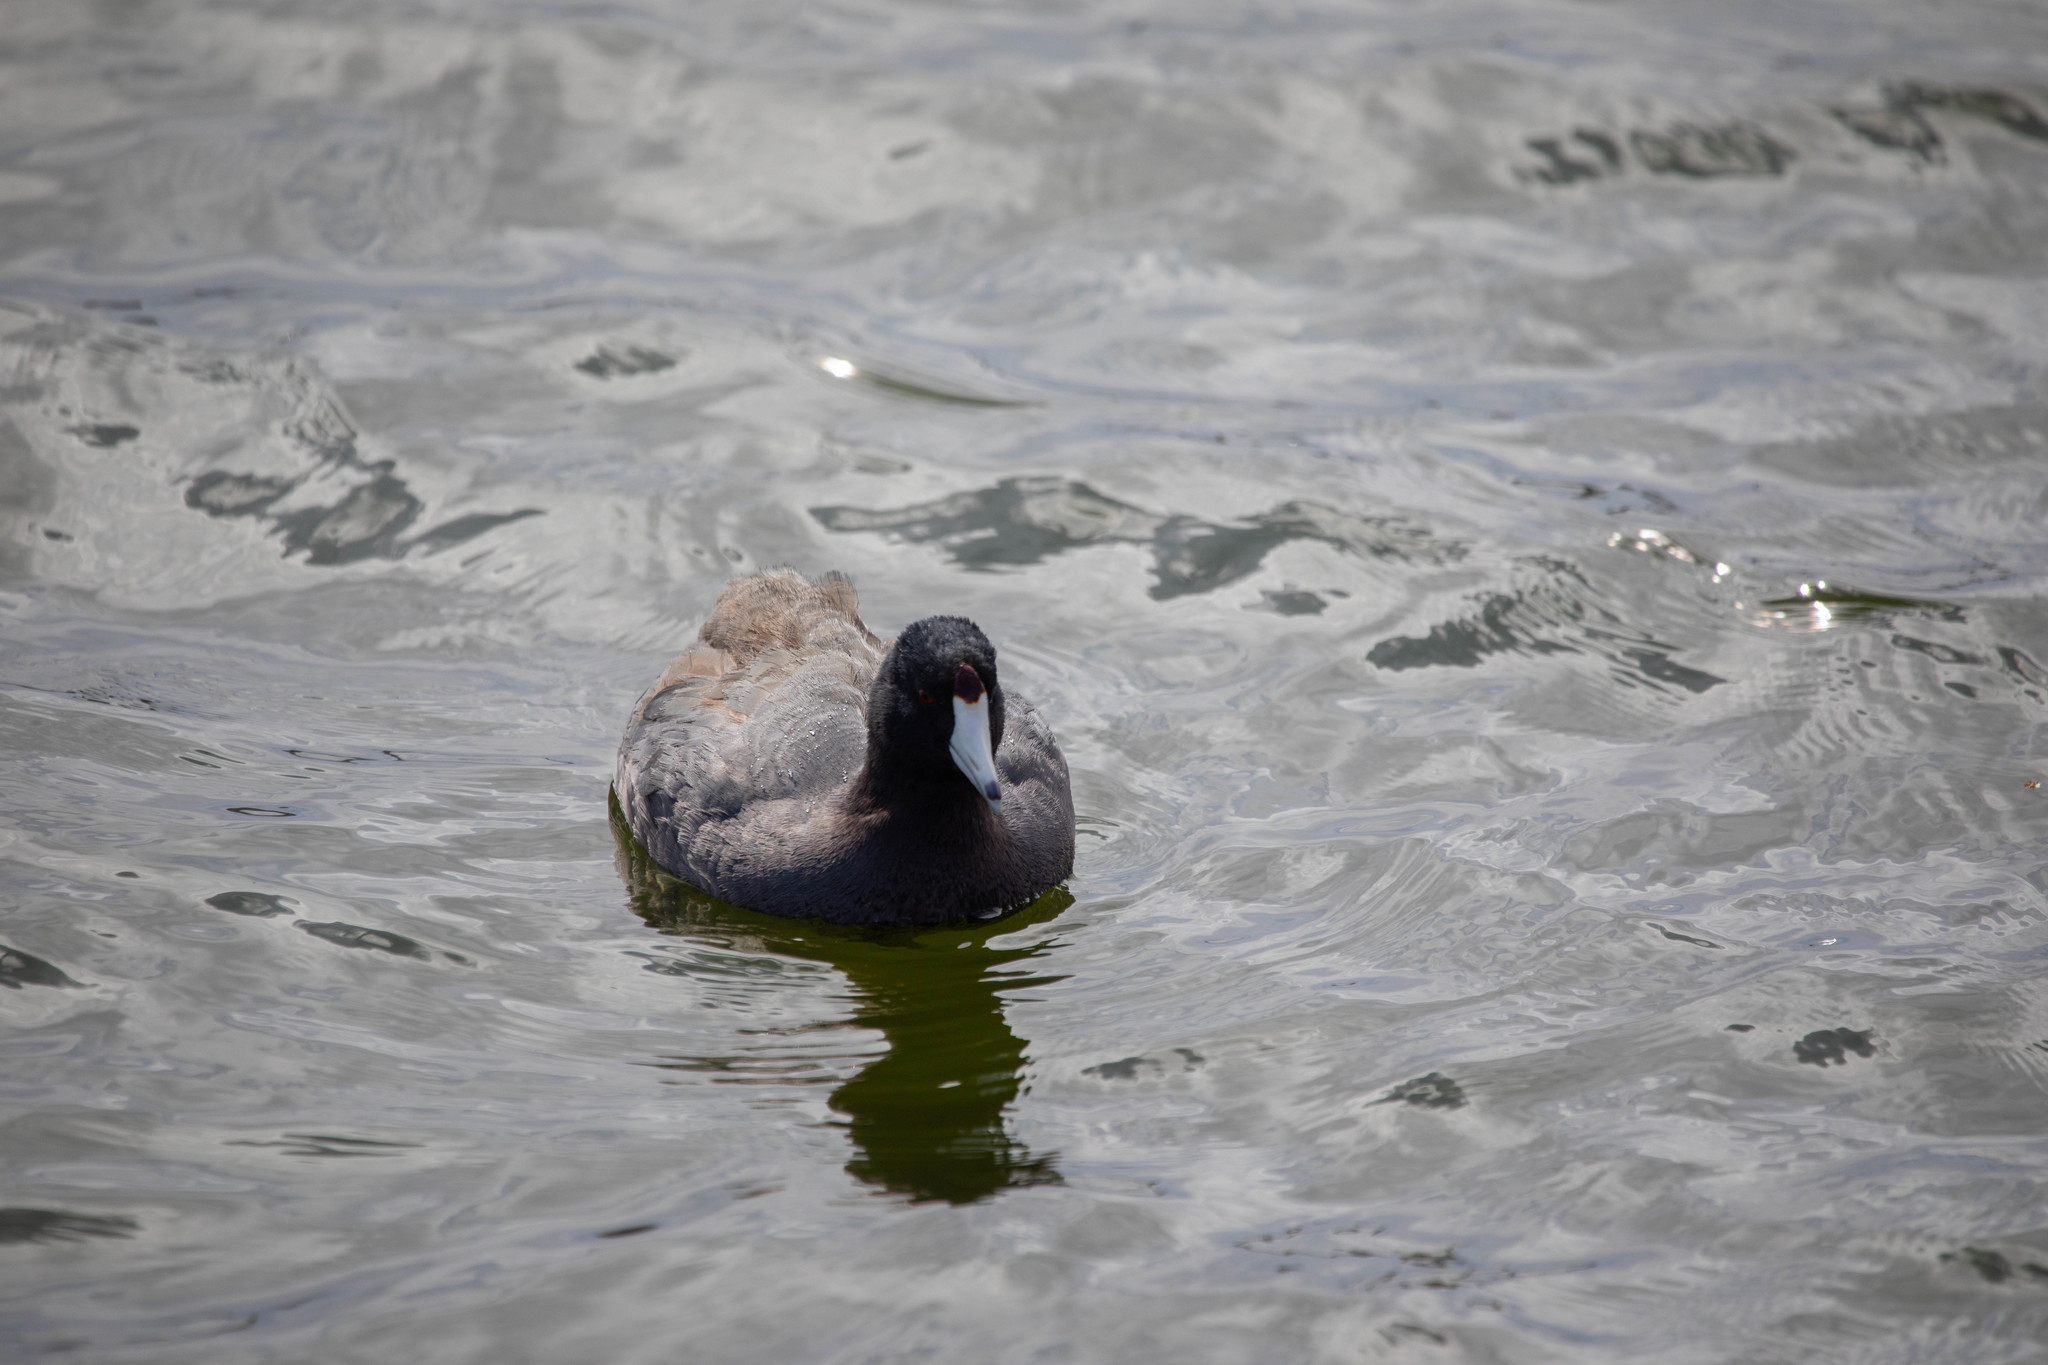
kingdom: Animalia
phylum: Chordata
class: Aves
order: Gruiformes
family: Rallidae
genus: Fulica
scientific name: Fulica americana
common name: American coot
